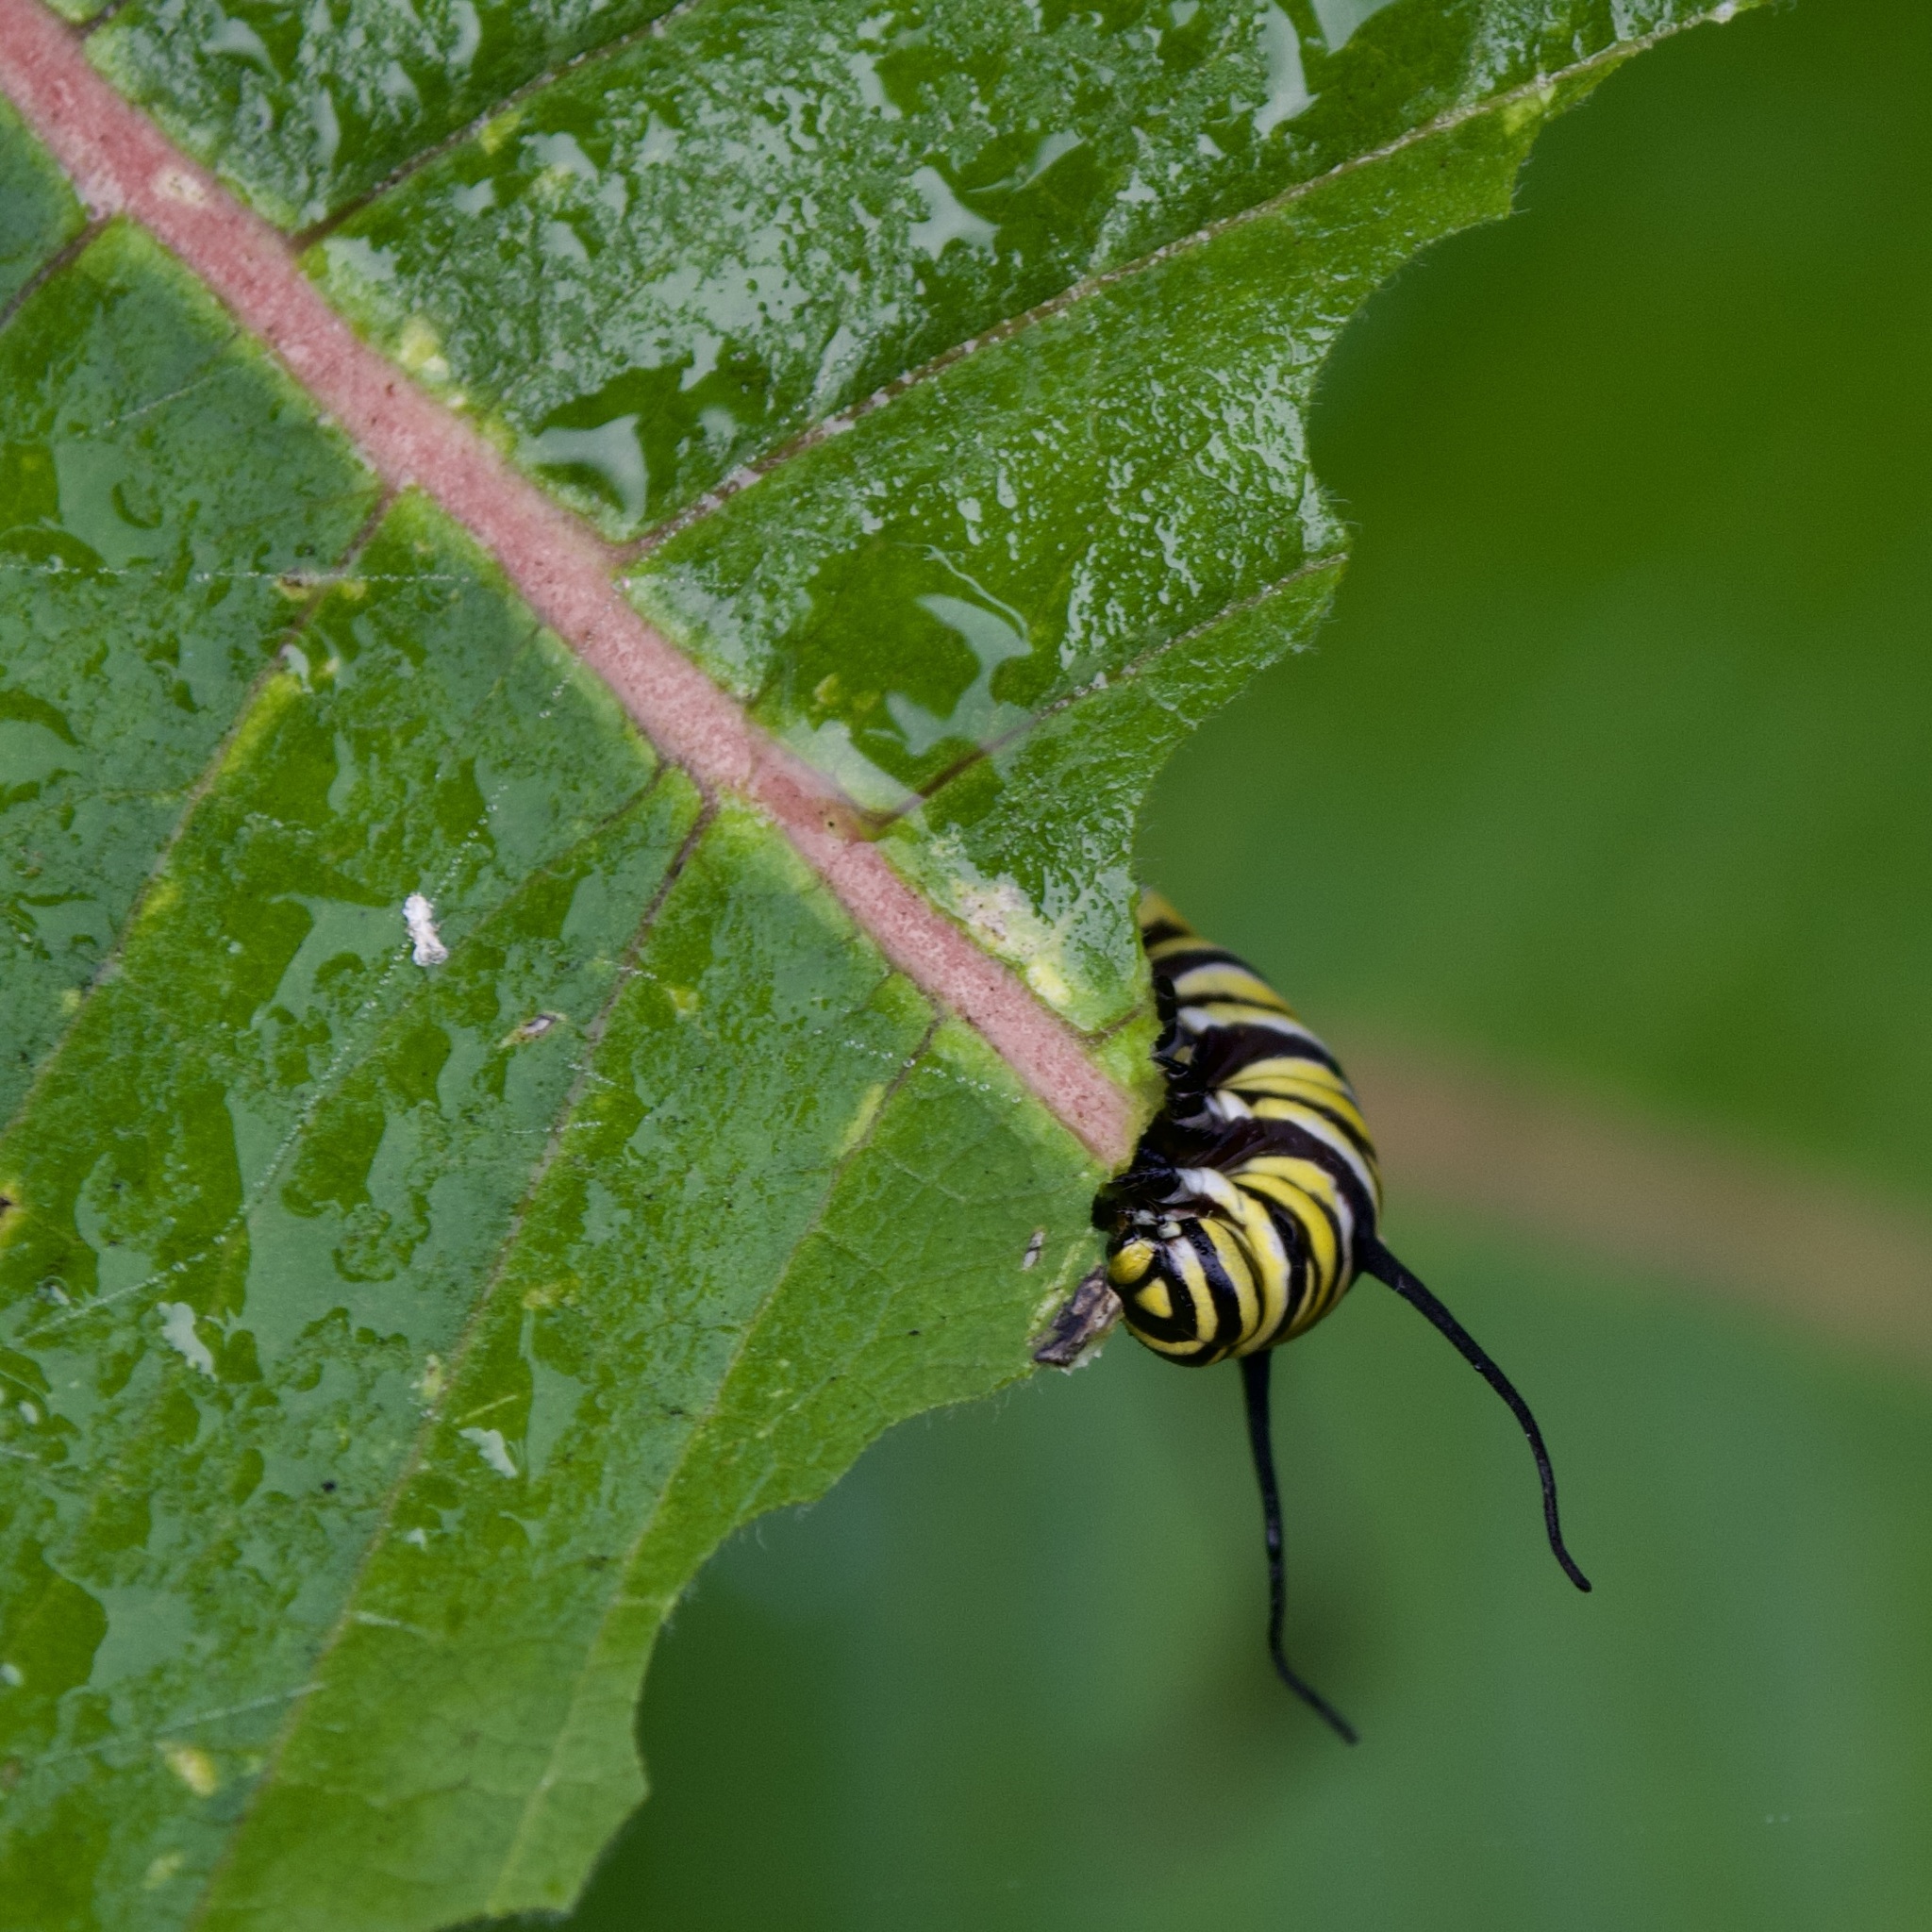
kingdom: Animalia
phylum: Arthropoda
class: Insecta
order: Lepidoptera
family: Nymphalidae
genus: Danaus
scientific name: Danaus plexippus
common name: Monarch
